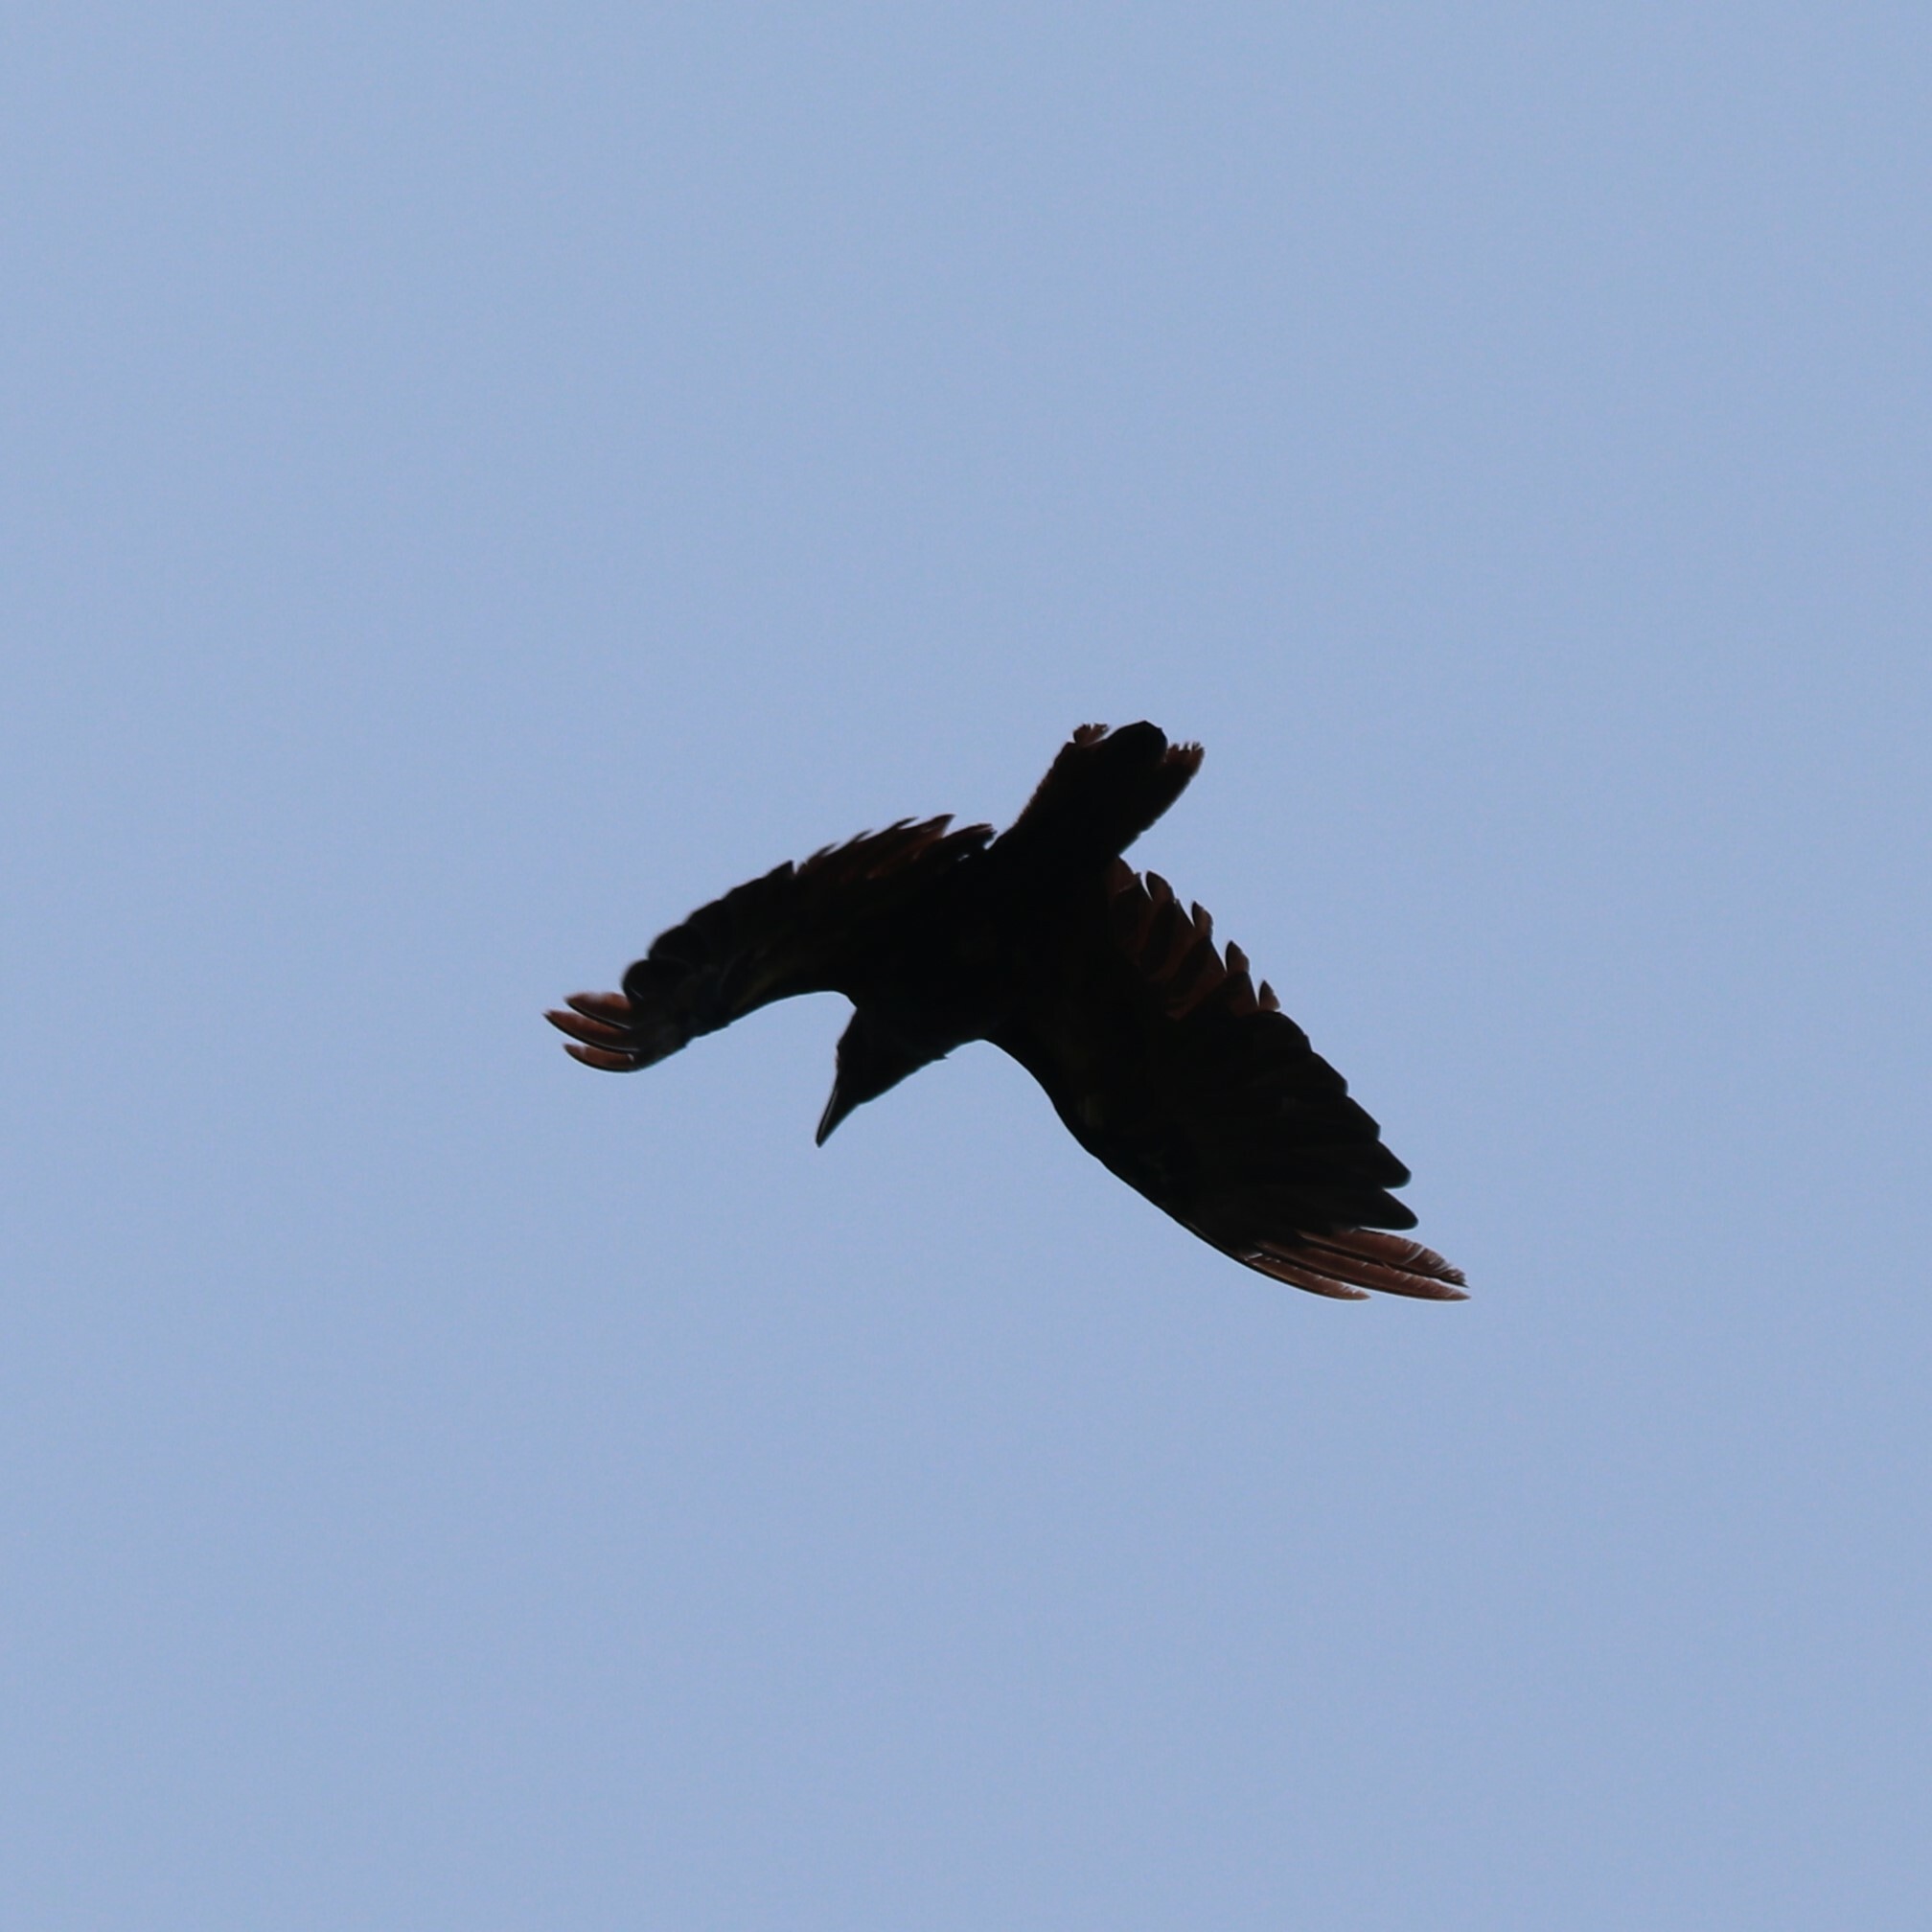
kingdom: Animalia
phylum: Chordata
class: Aves
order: Passeriformes
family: Corvidae
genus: Corvus
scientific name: Corvus corax
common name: Common raven
